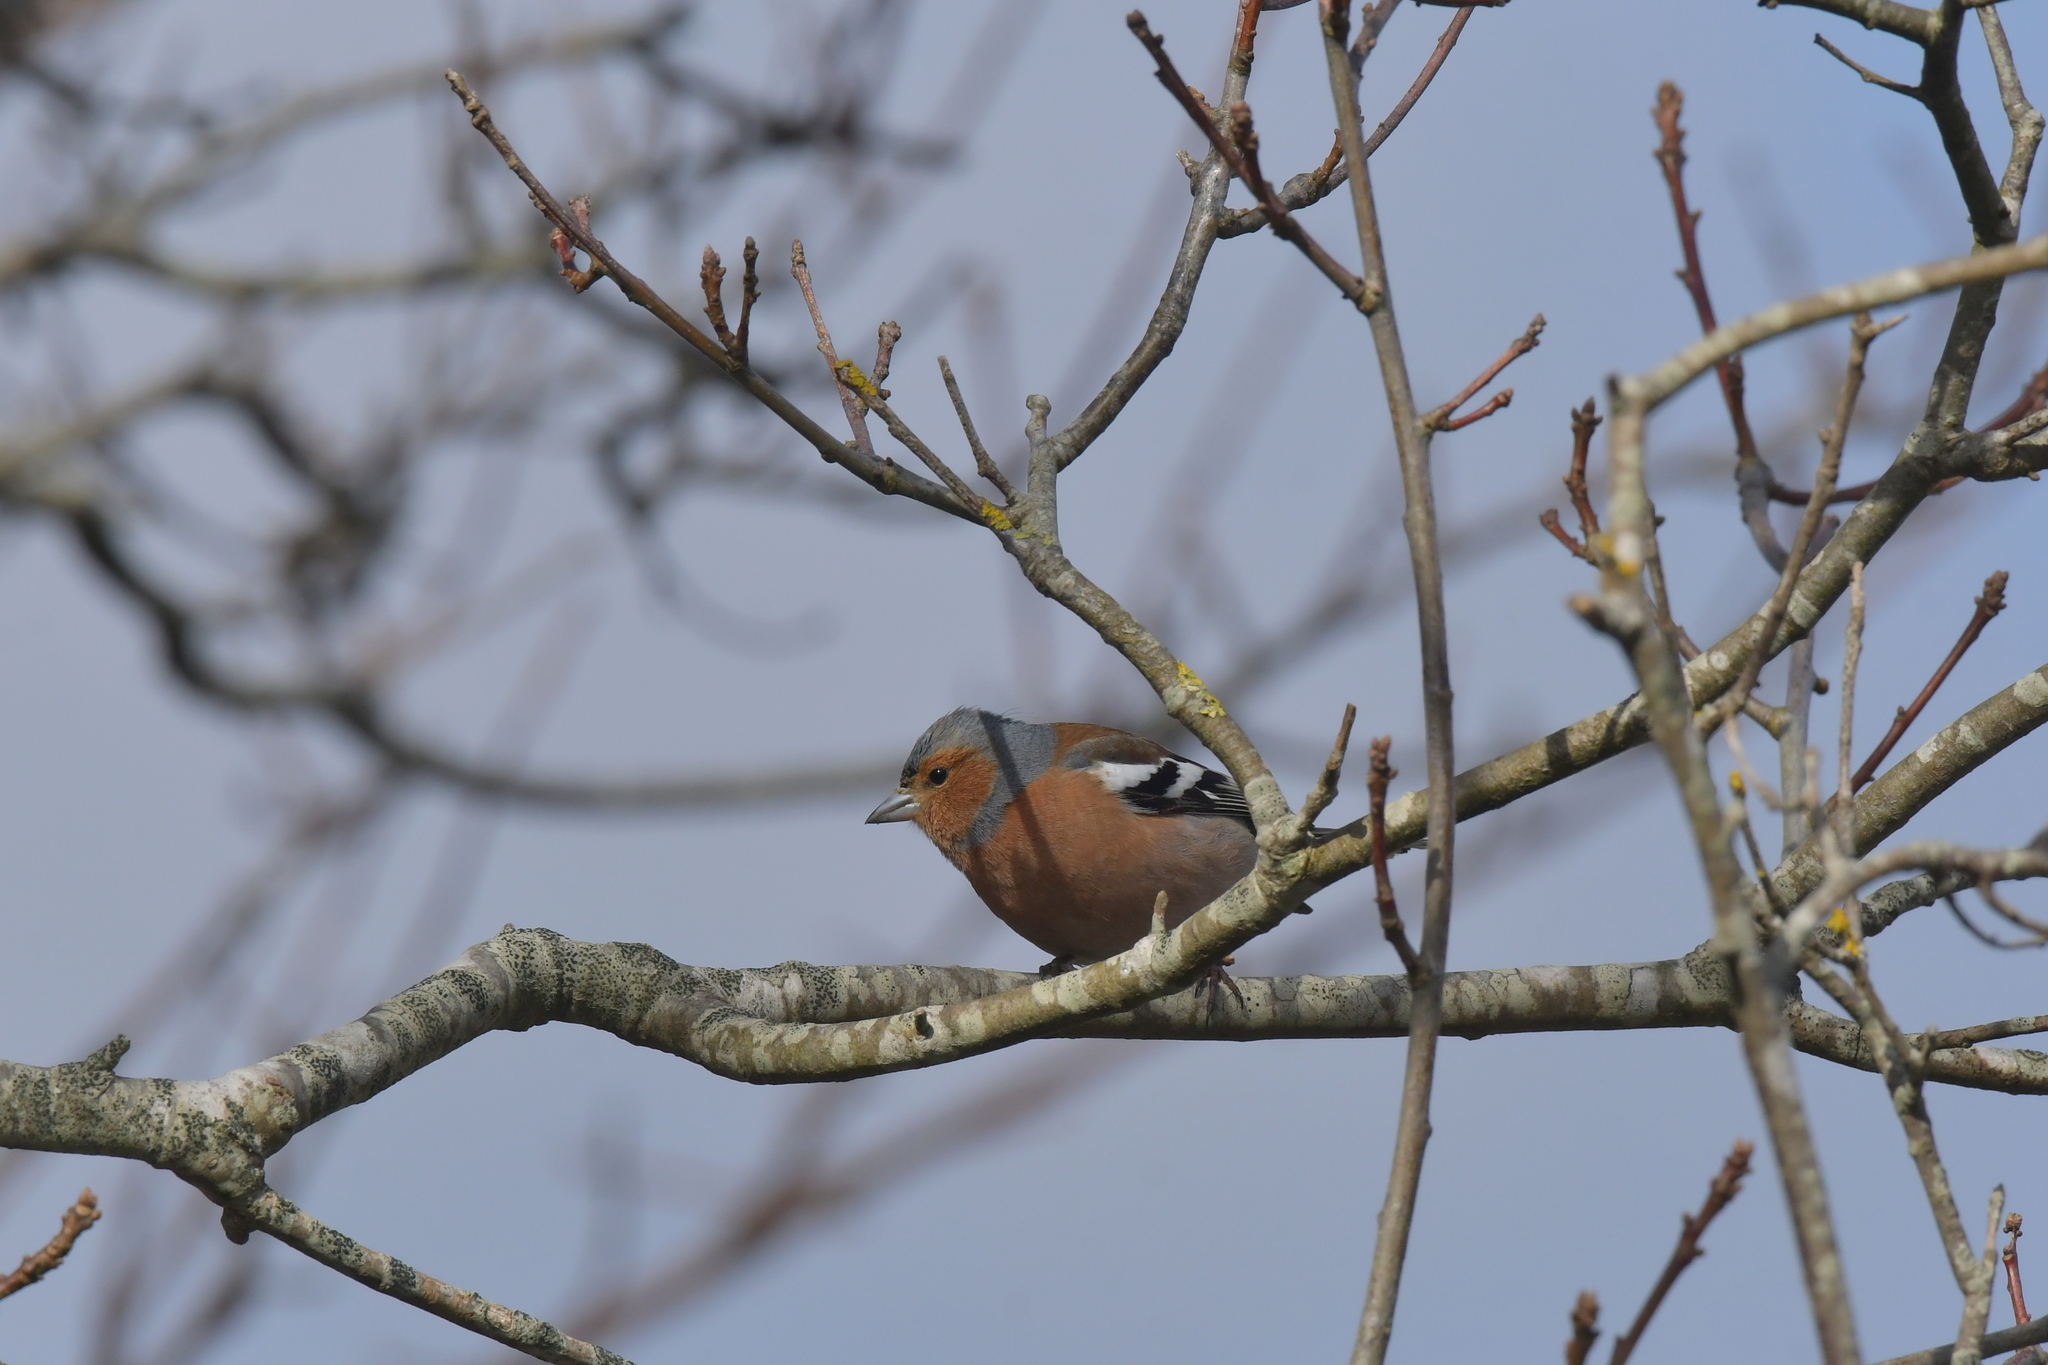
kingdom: Animalia
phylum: Chordata
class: Aves
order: Passeriformes
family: Fringillidae
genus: Fringilla
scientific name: Fringilla coelebs
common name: Common chaffinch
